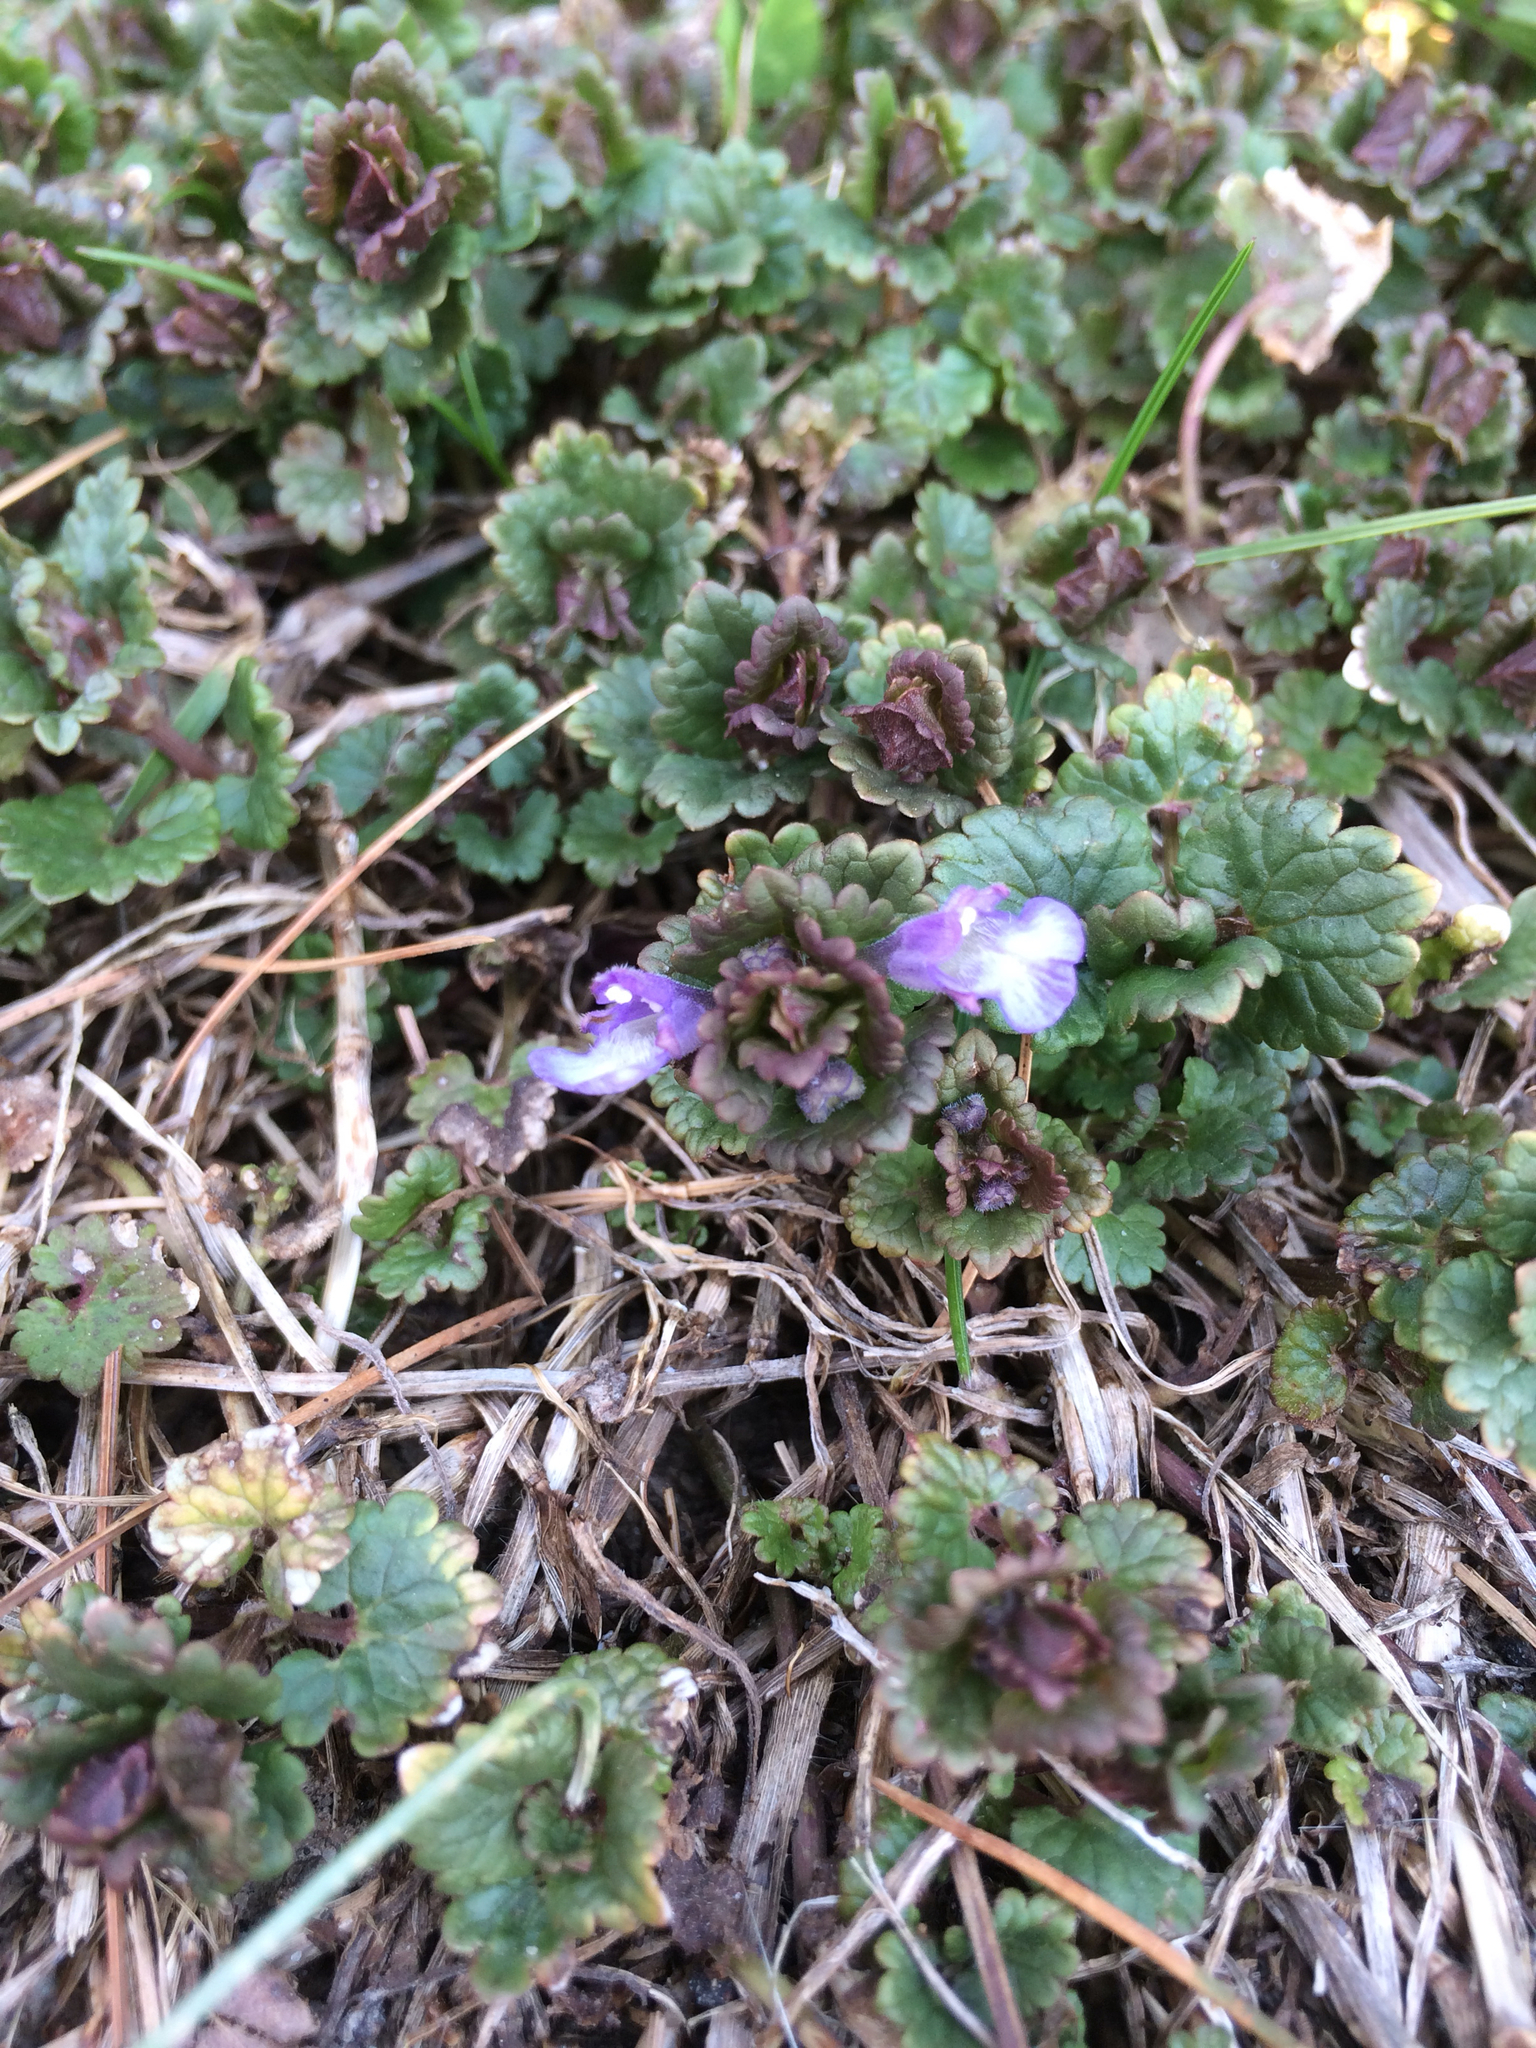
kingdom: Plantae
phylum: Tracheophyta
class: Magnoliopsida
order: Lamiales
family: Lamiaceae
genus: Glechoma
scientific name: Glechoma hederacea
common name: Ground ivy
